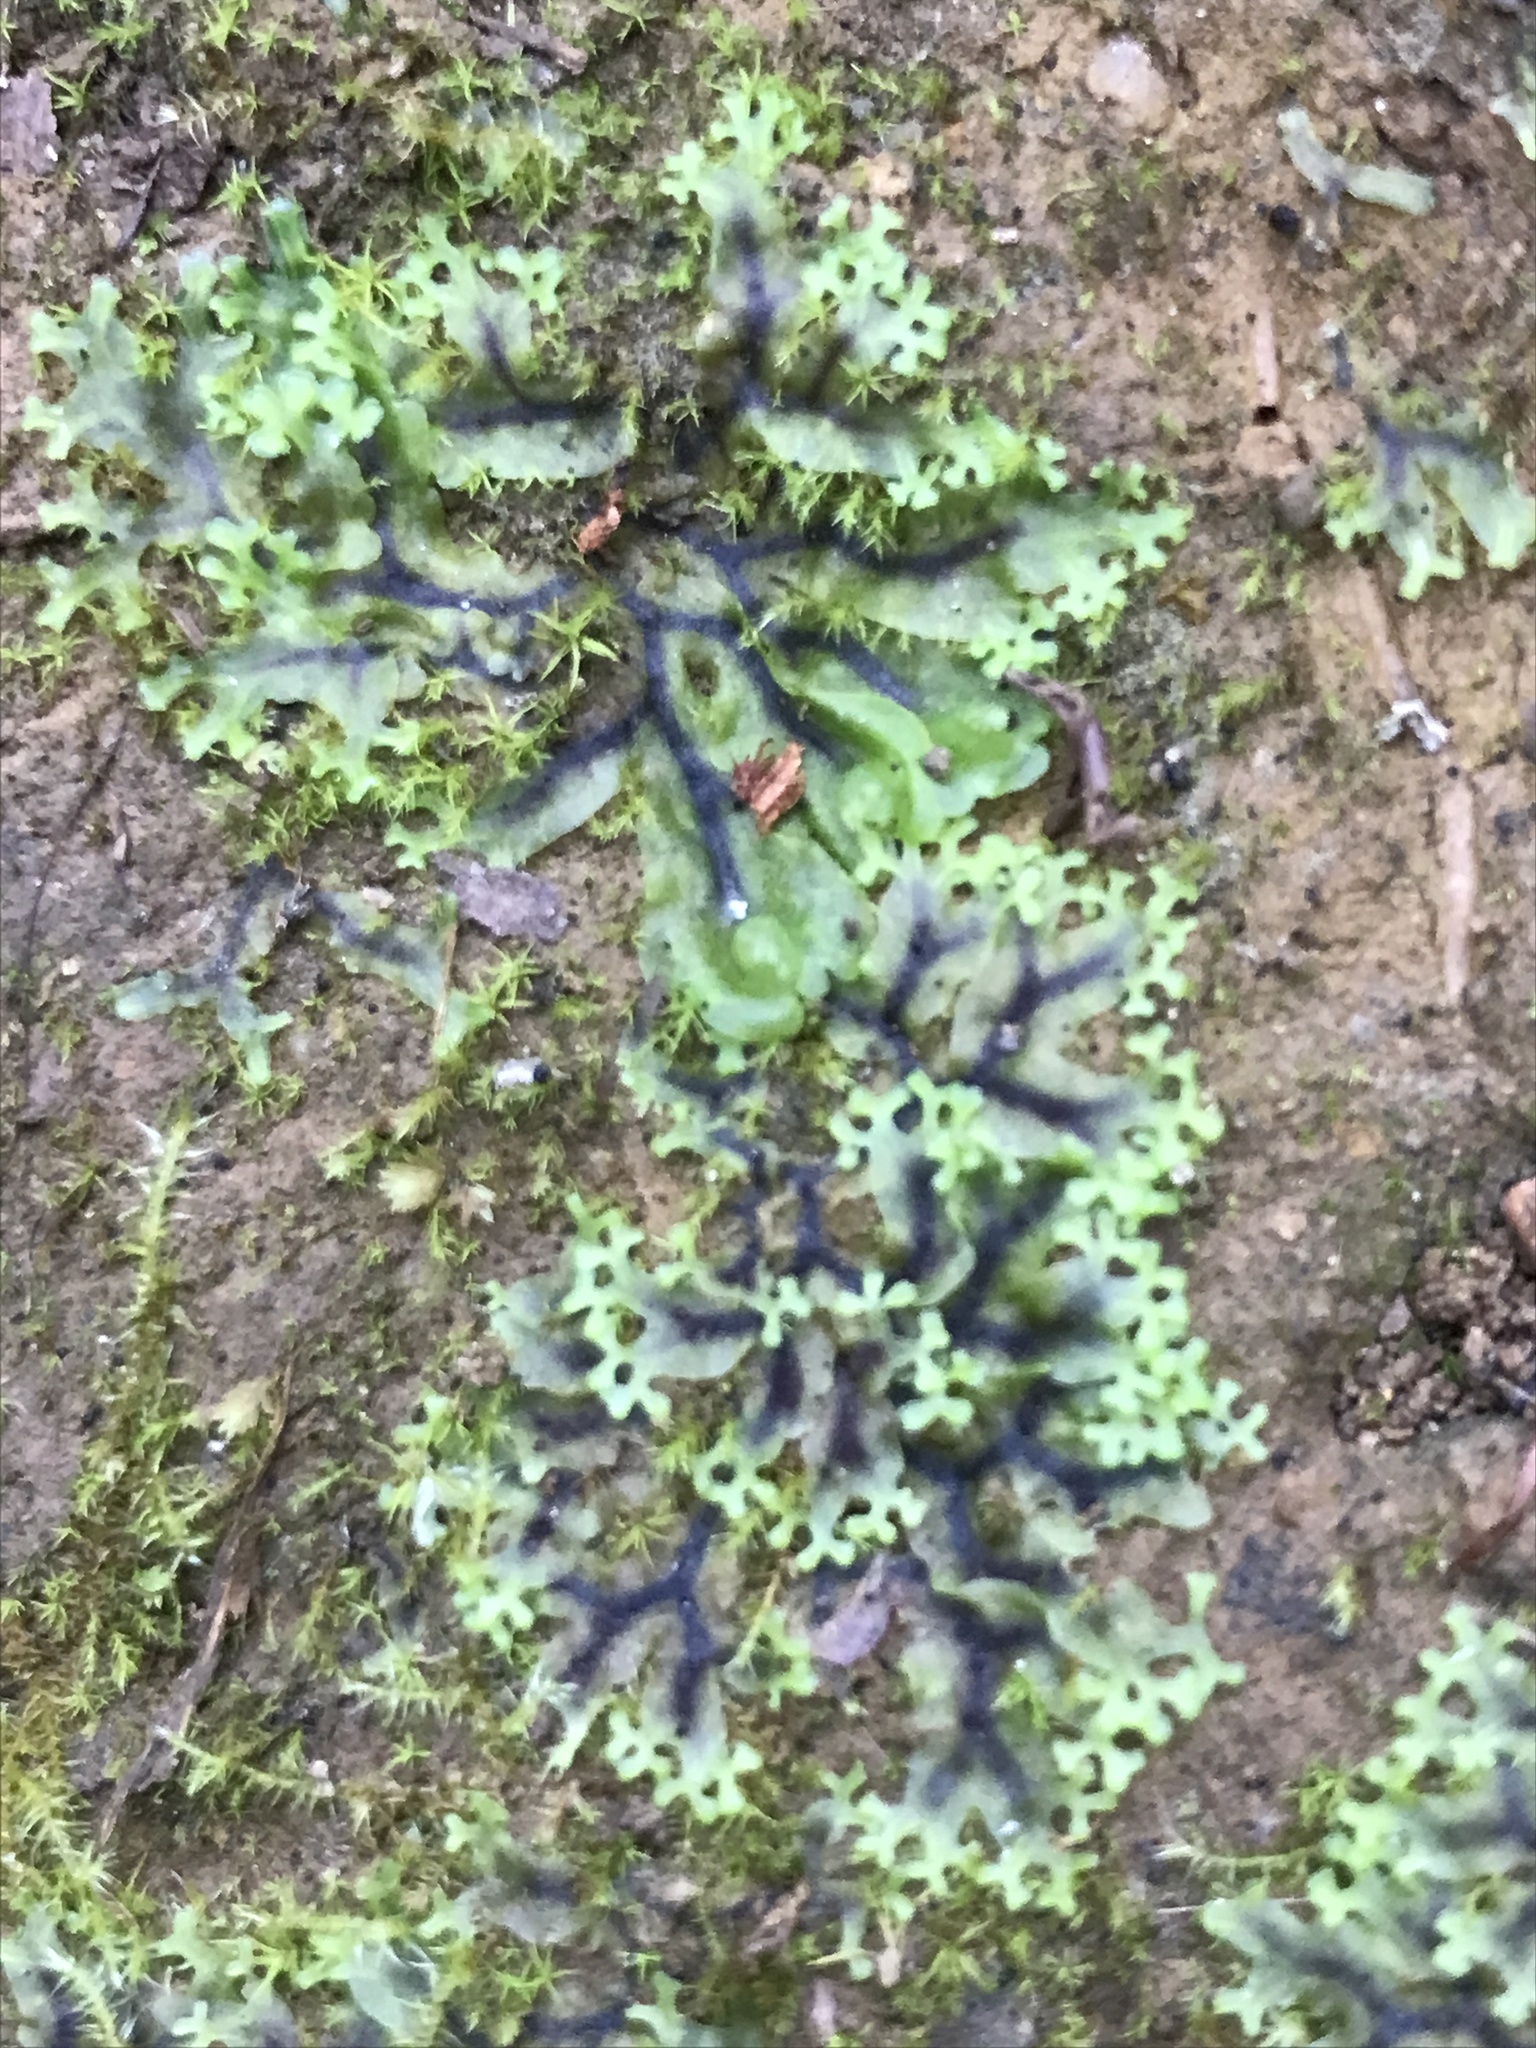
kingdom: Plantae
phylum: Marchantiophyta
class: Jungermanniopsida
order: Pelliales
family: Pelliaceae
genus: Apopellia
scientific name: Apopellia endiviifolia
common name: Endive pellia
